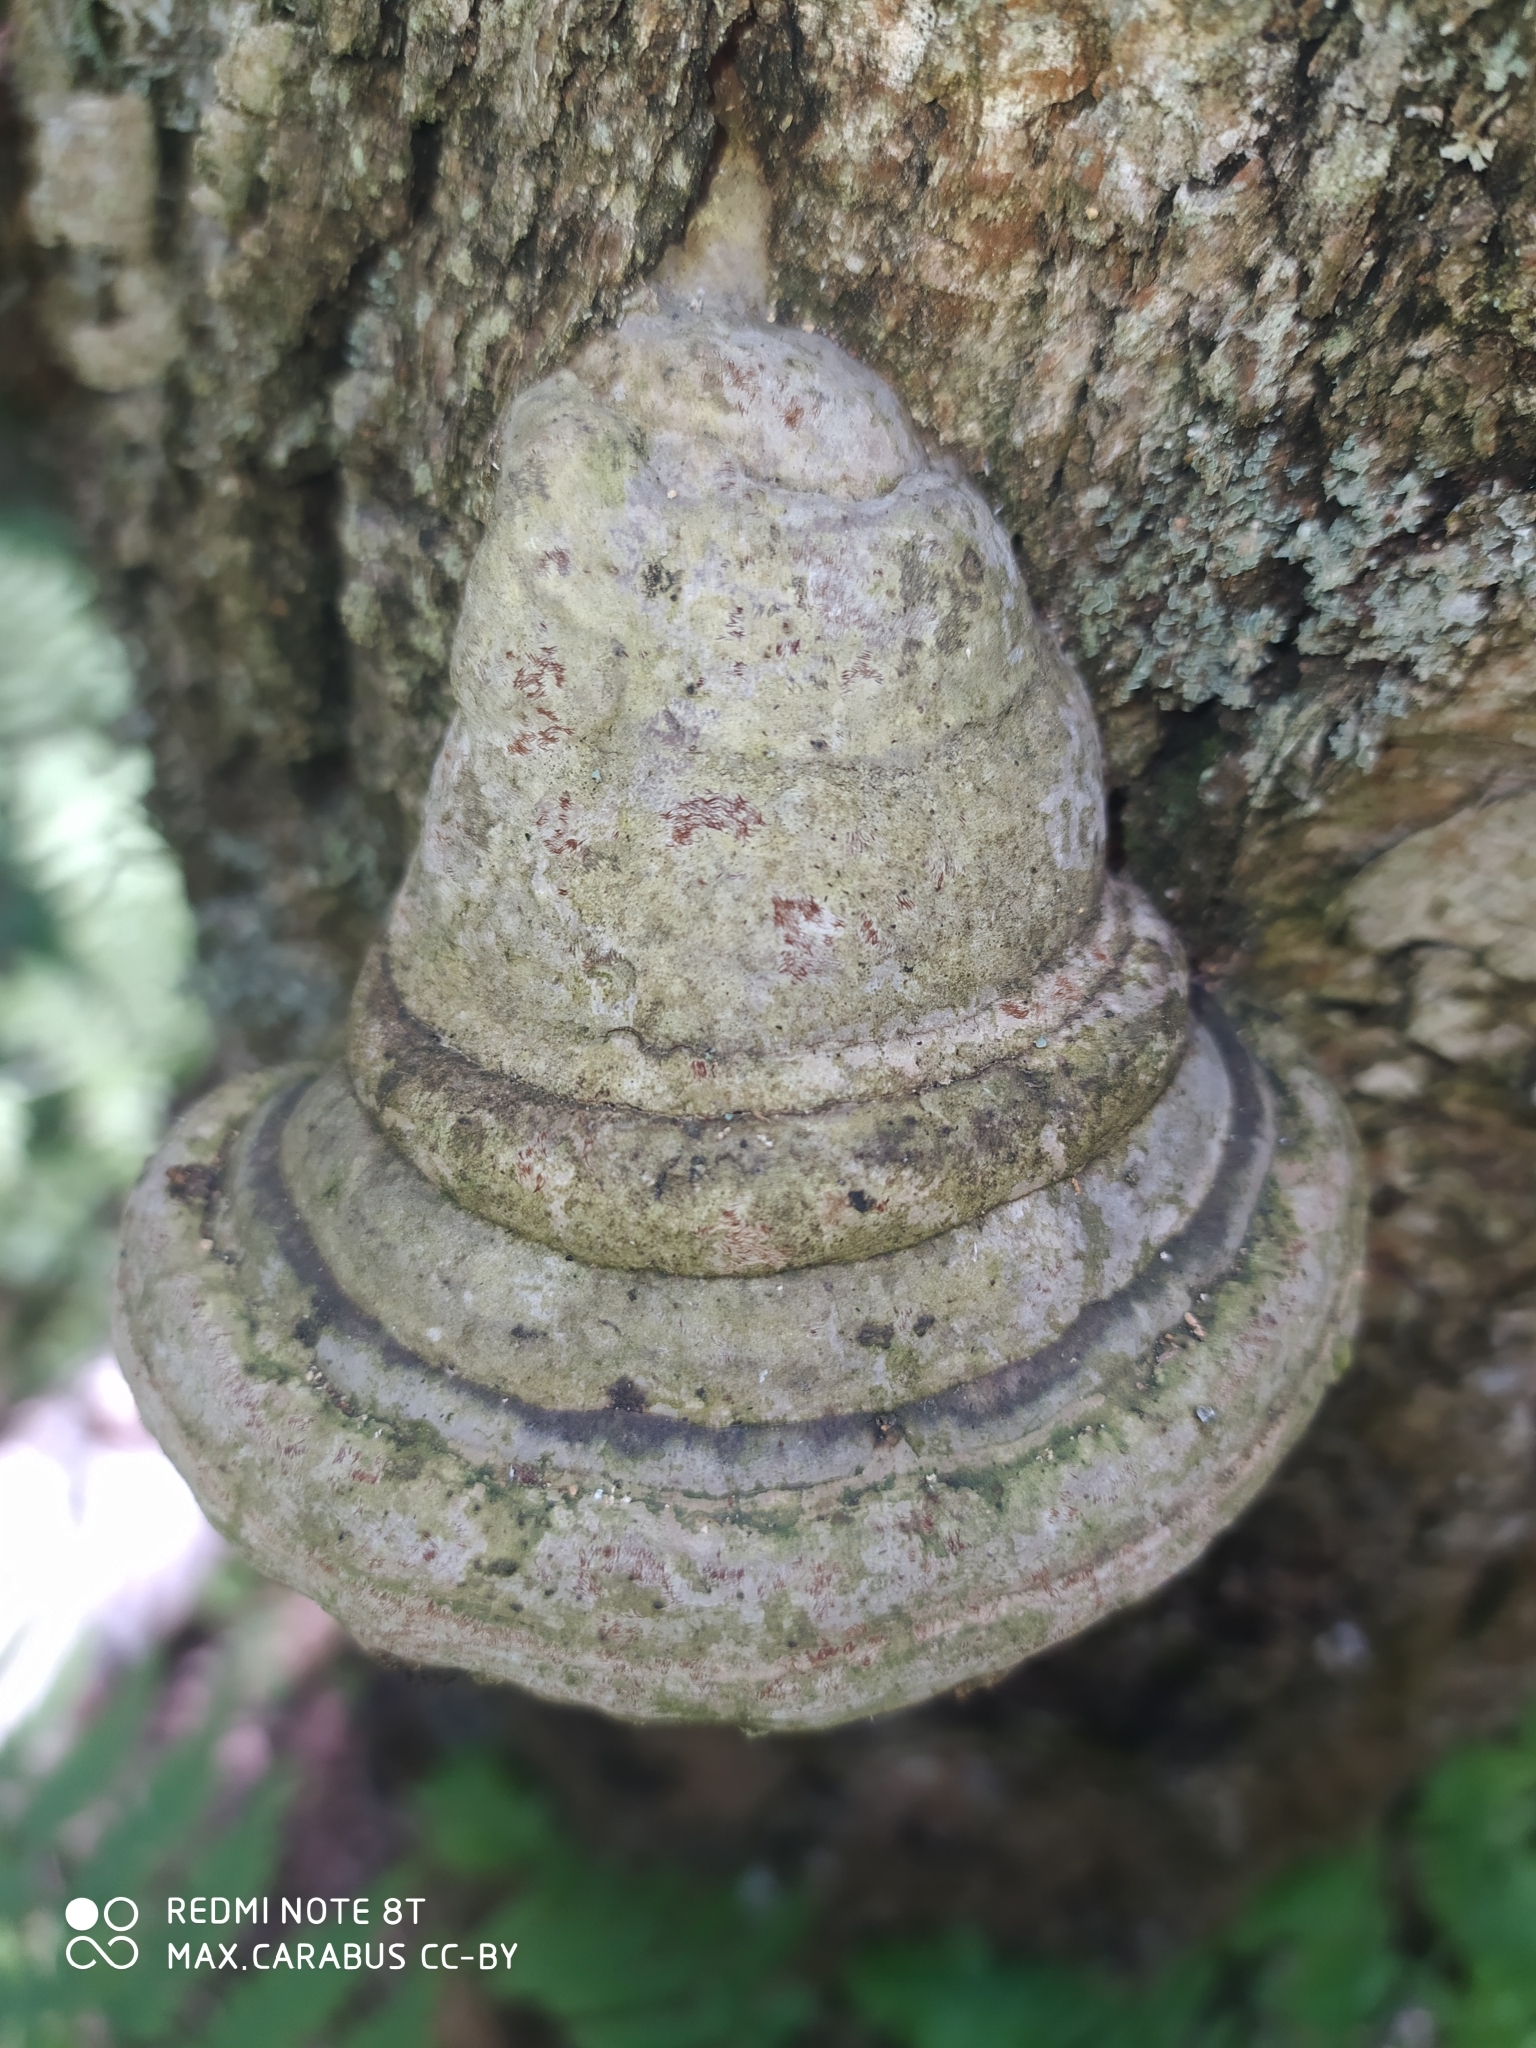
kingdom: Fungi
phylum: Basidiomycota
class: Agaricomycetes
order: Polyporales
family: Polyporaceae
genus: Fomes
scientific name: Fomes fomentarius
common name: Hoof fungus
